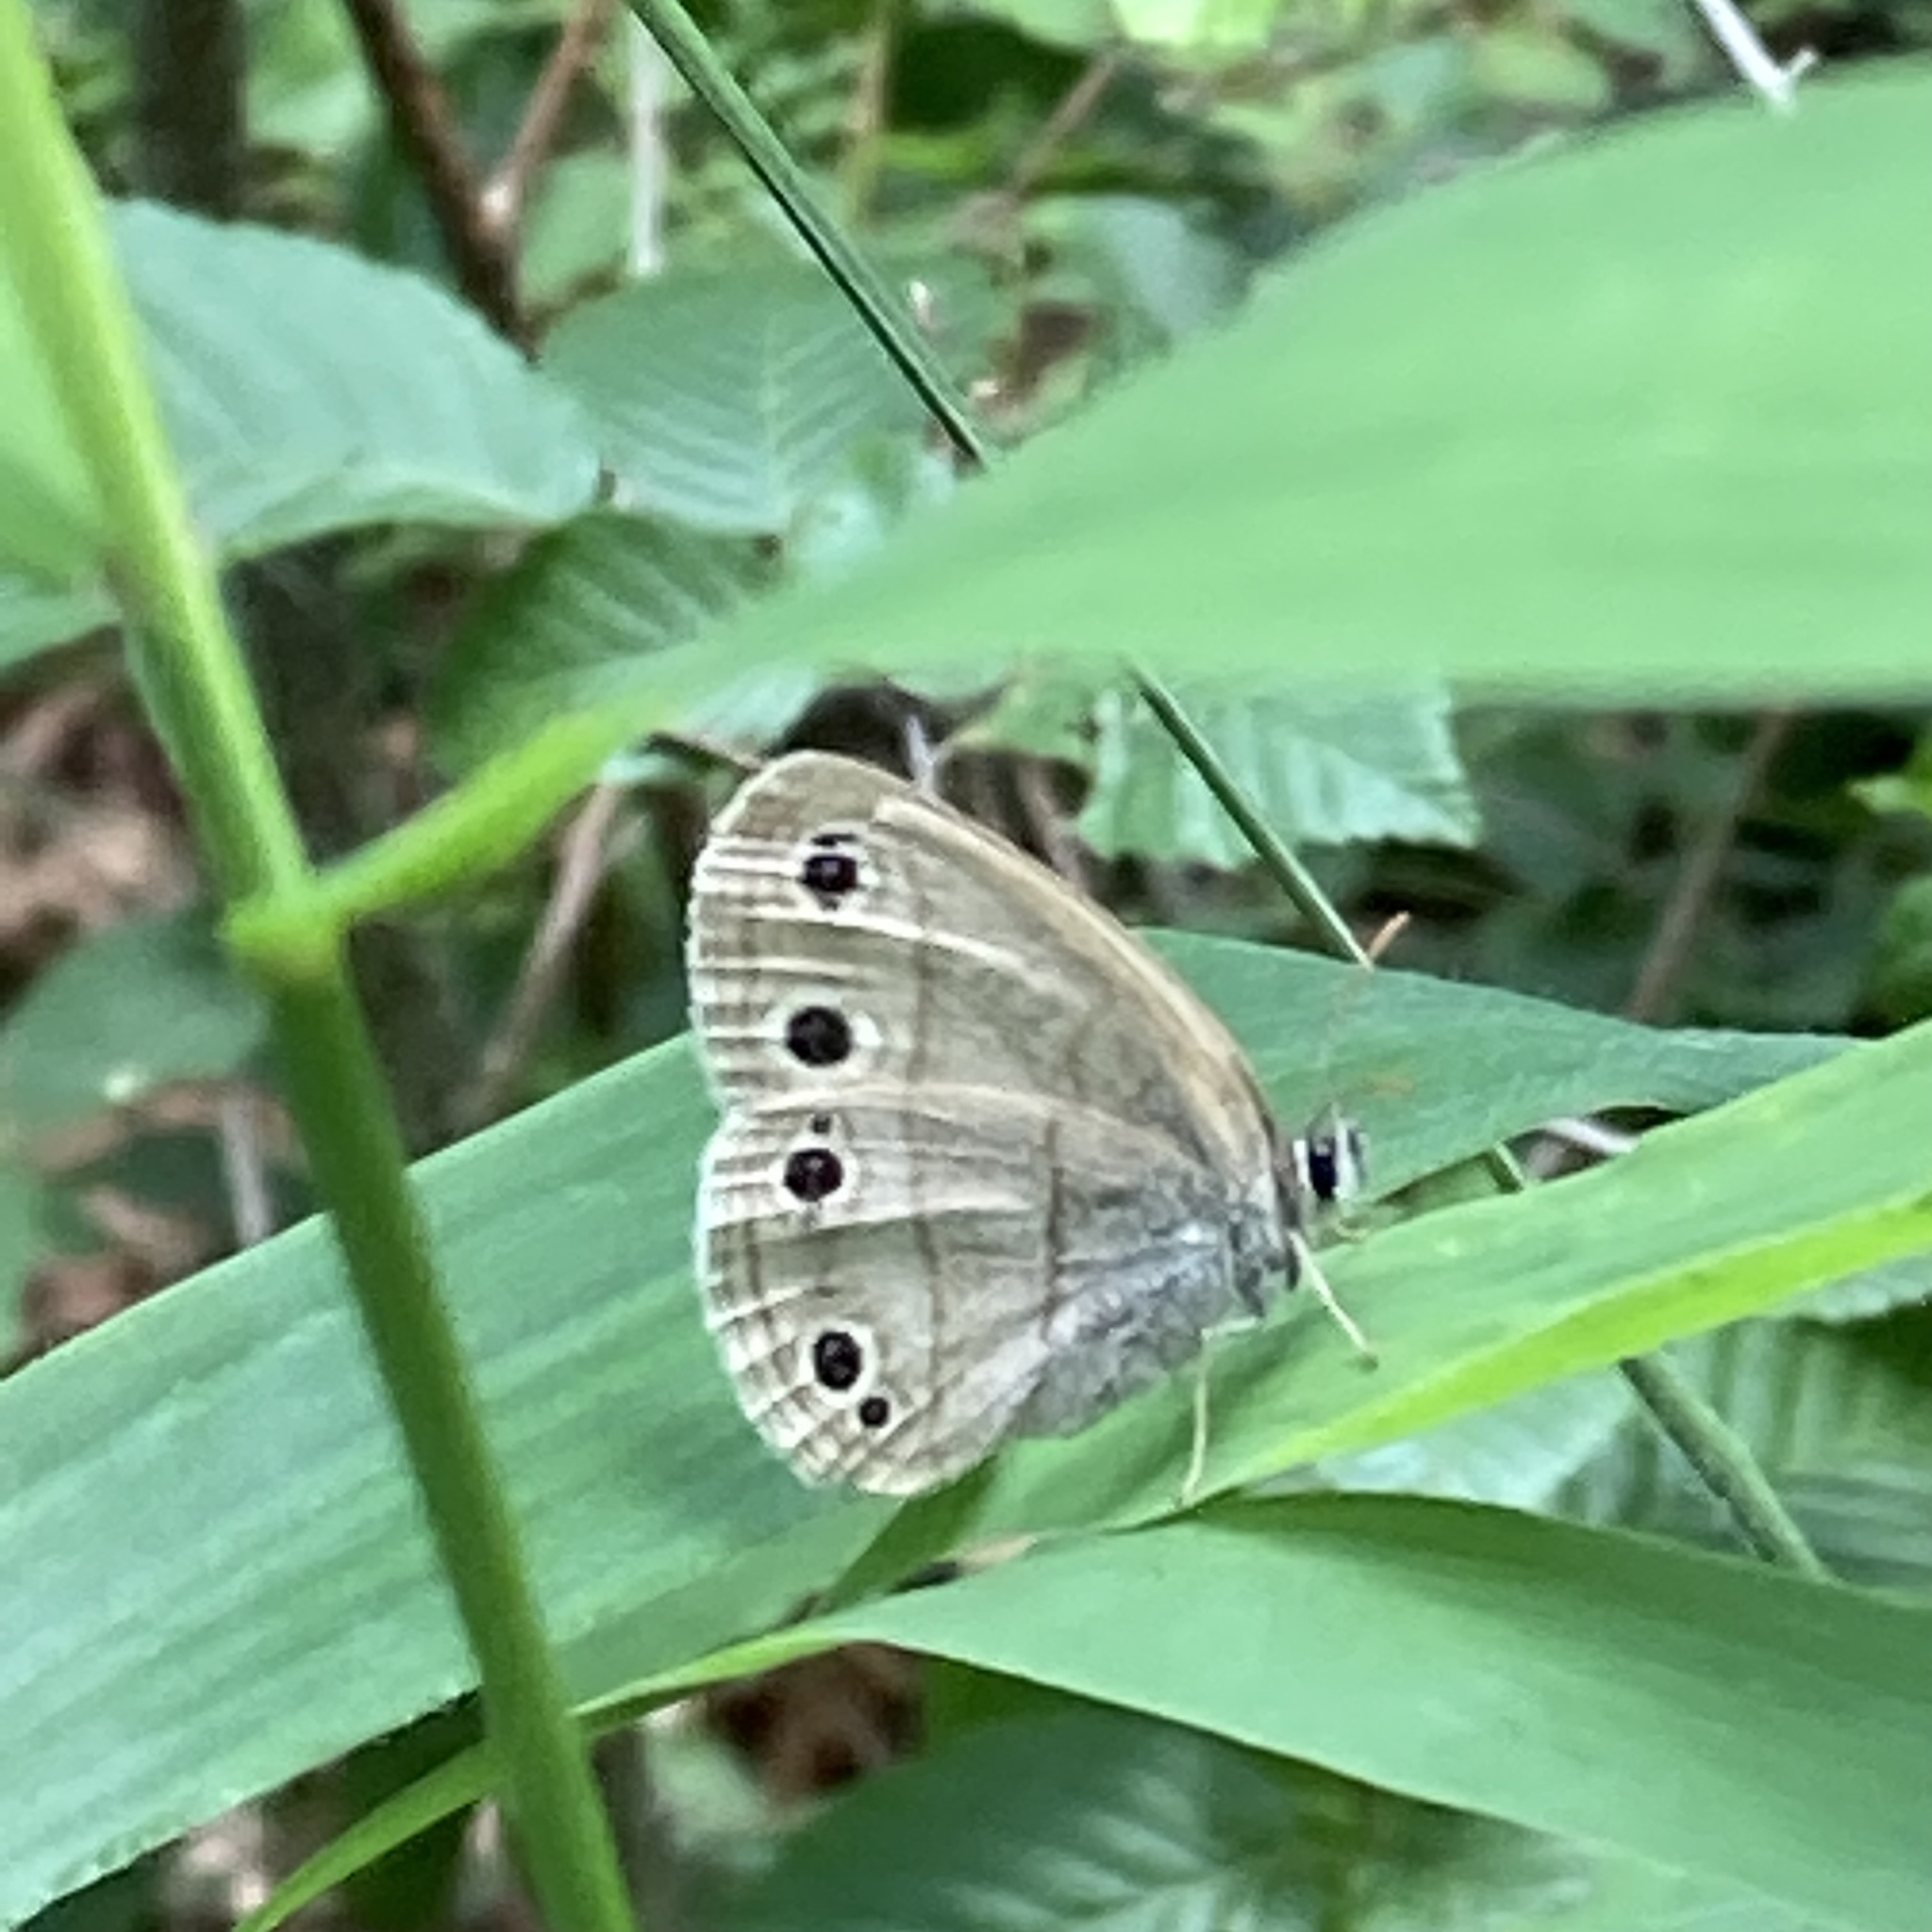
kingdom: Animalia
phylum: Arthropoda
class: Insecta
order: Lepidoptera
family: Nymphalidae
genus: Euptychia
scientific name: Euptychia cymela
